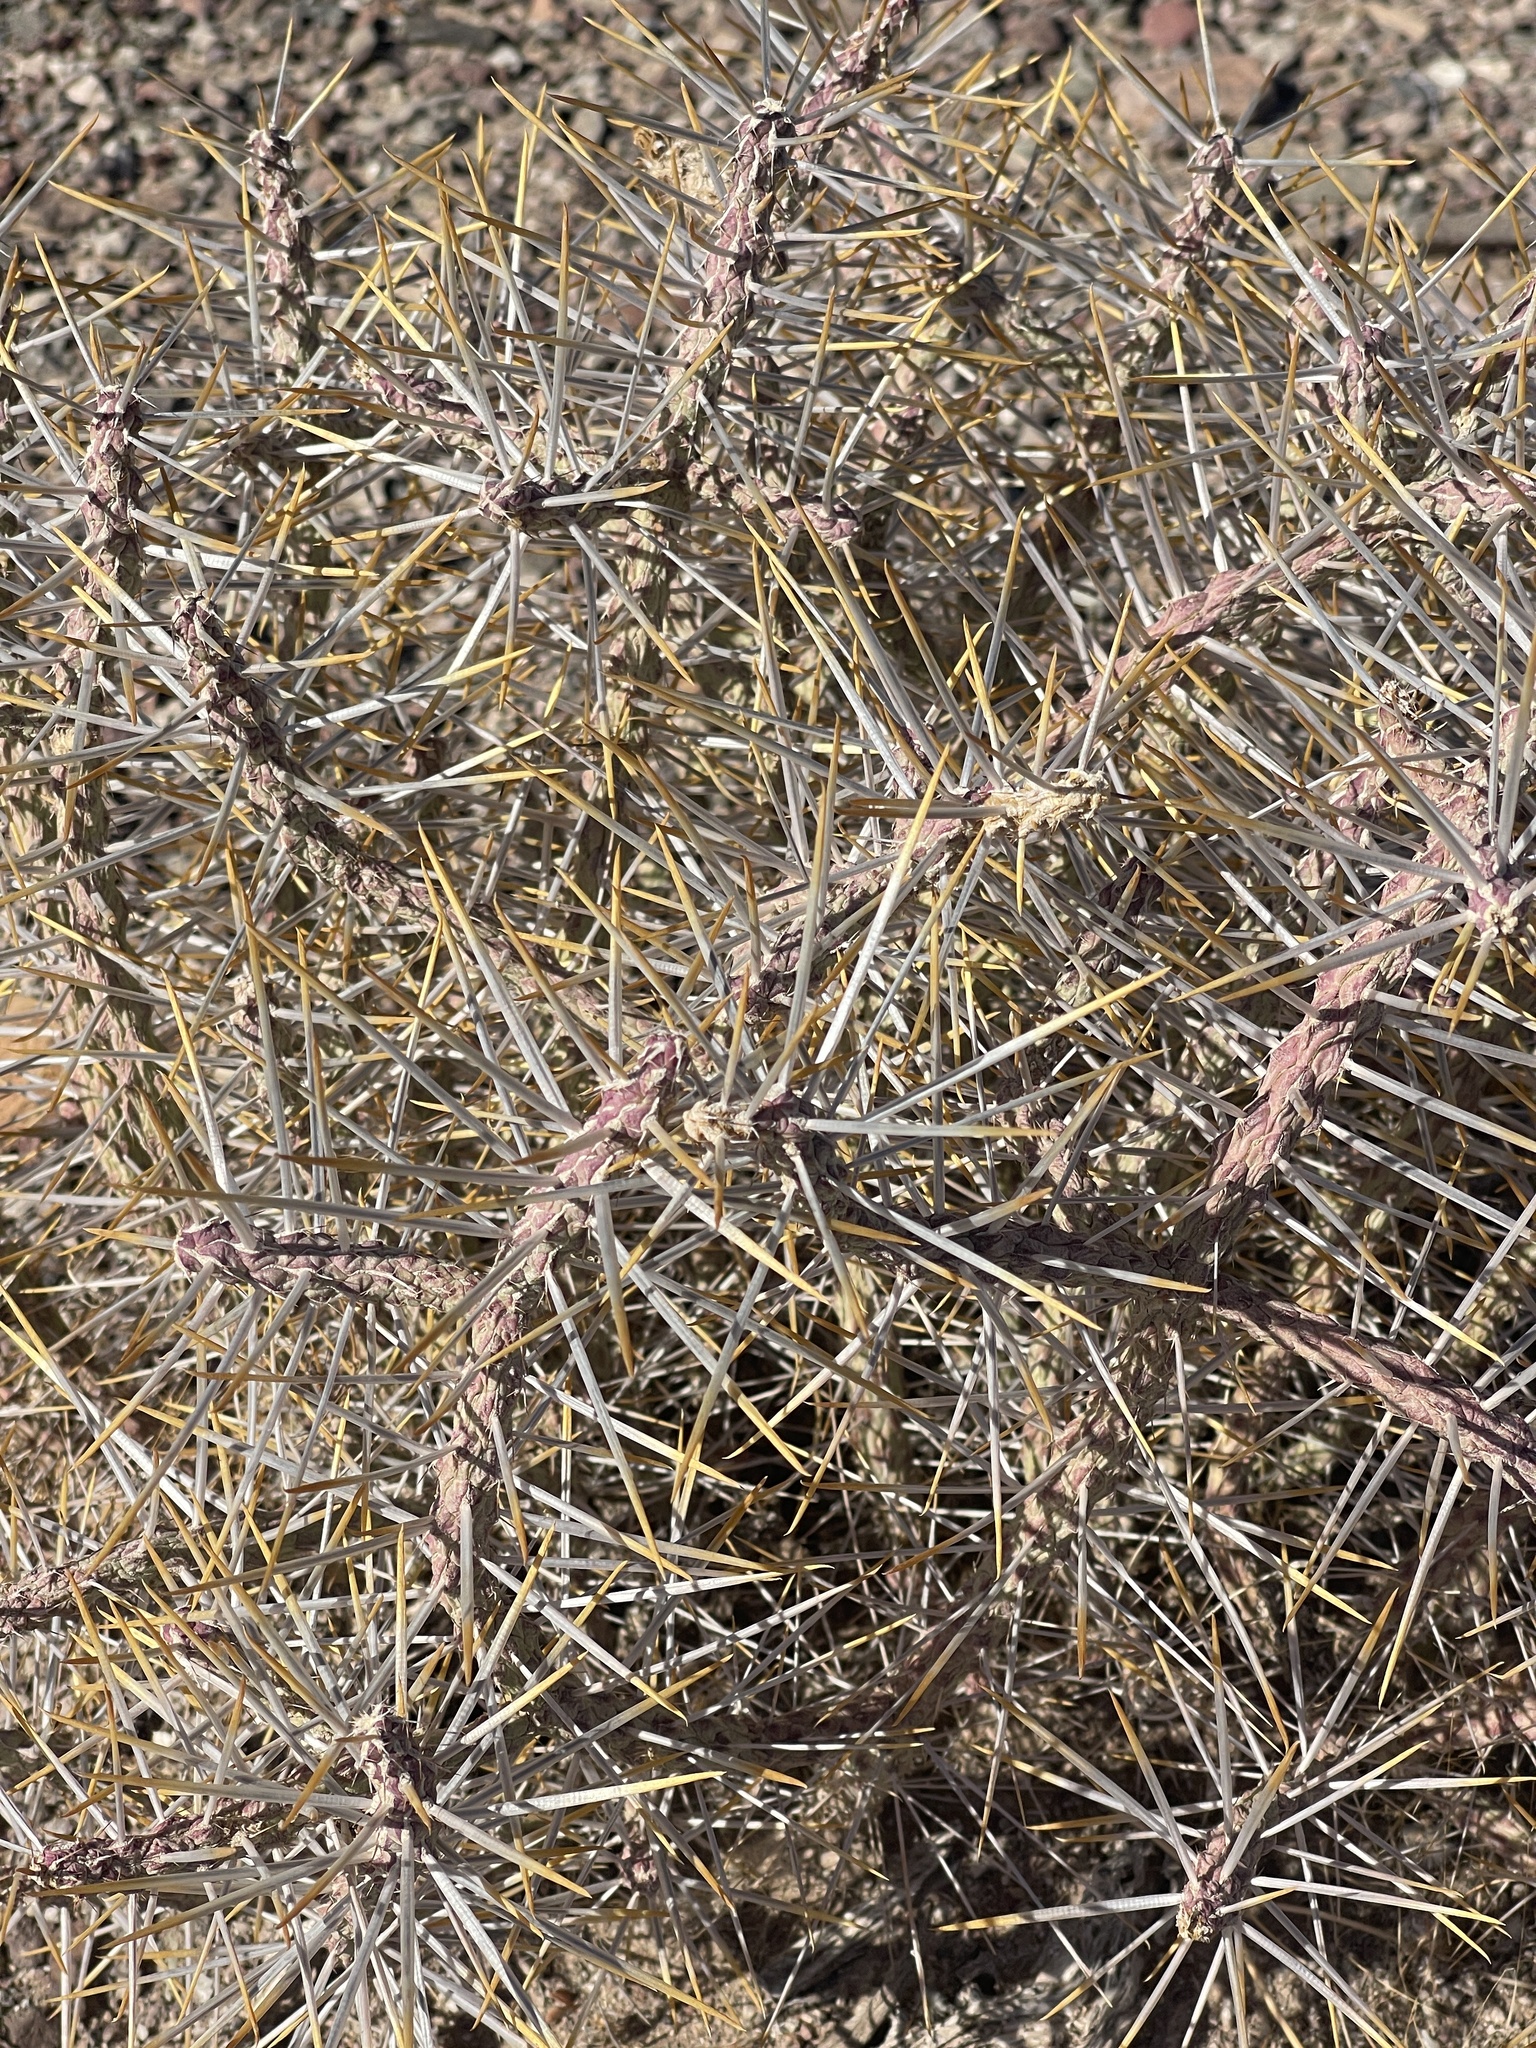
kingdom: Plantae
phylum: Tracheophyta
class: Magnoliopsida
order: Caryophyllales
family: Cactaceae
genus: Cylindropuntia
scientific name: Cylindropuntia ramosissima
